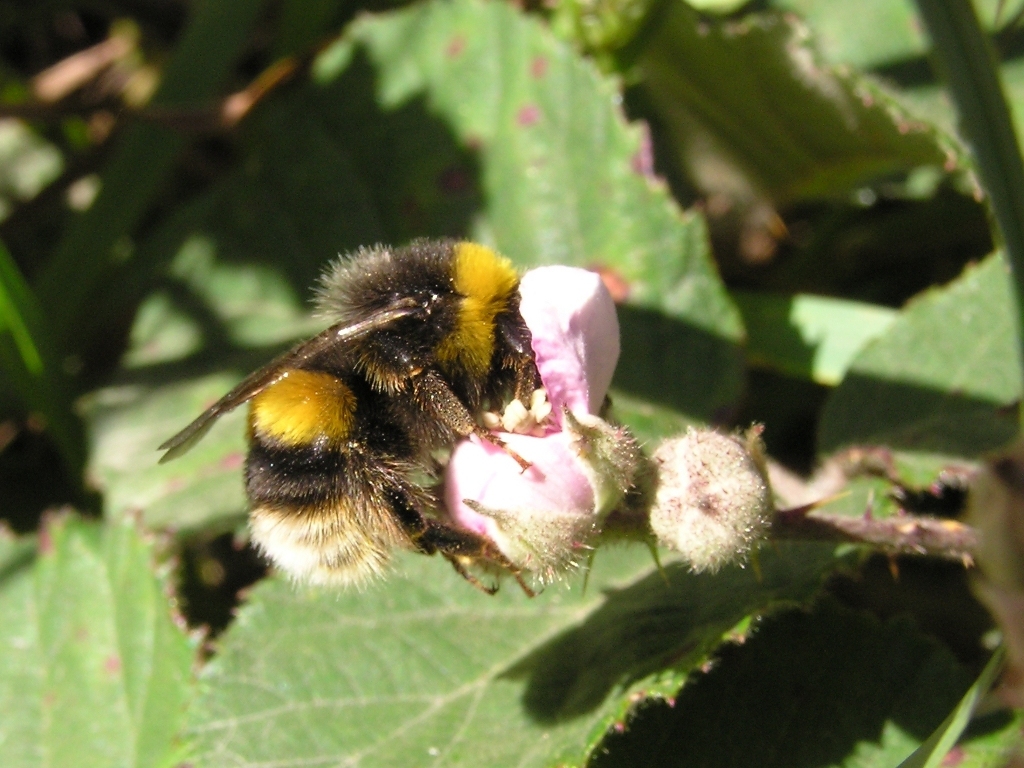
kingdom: Animalia
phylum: Arthropoda
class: Insecta
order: Hymenoptera
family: Apidae
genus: Bombus
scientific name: Bombus terrestris
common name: Buff-tailed bumblebee
